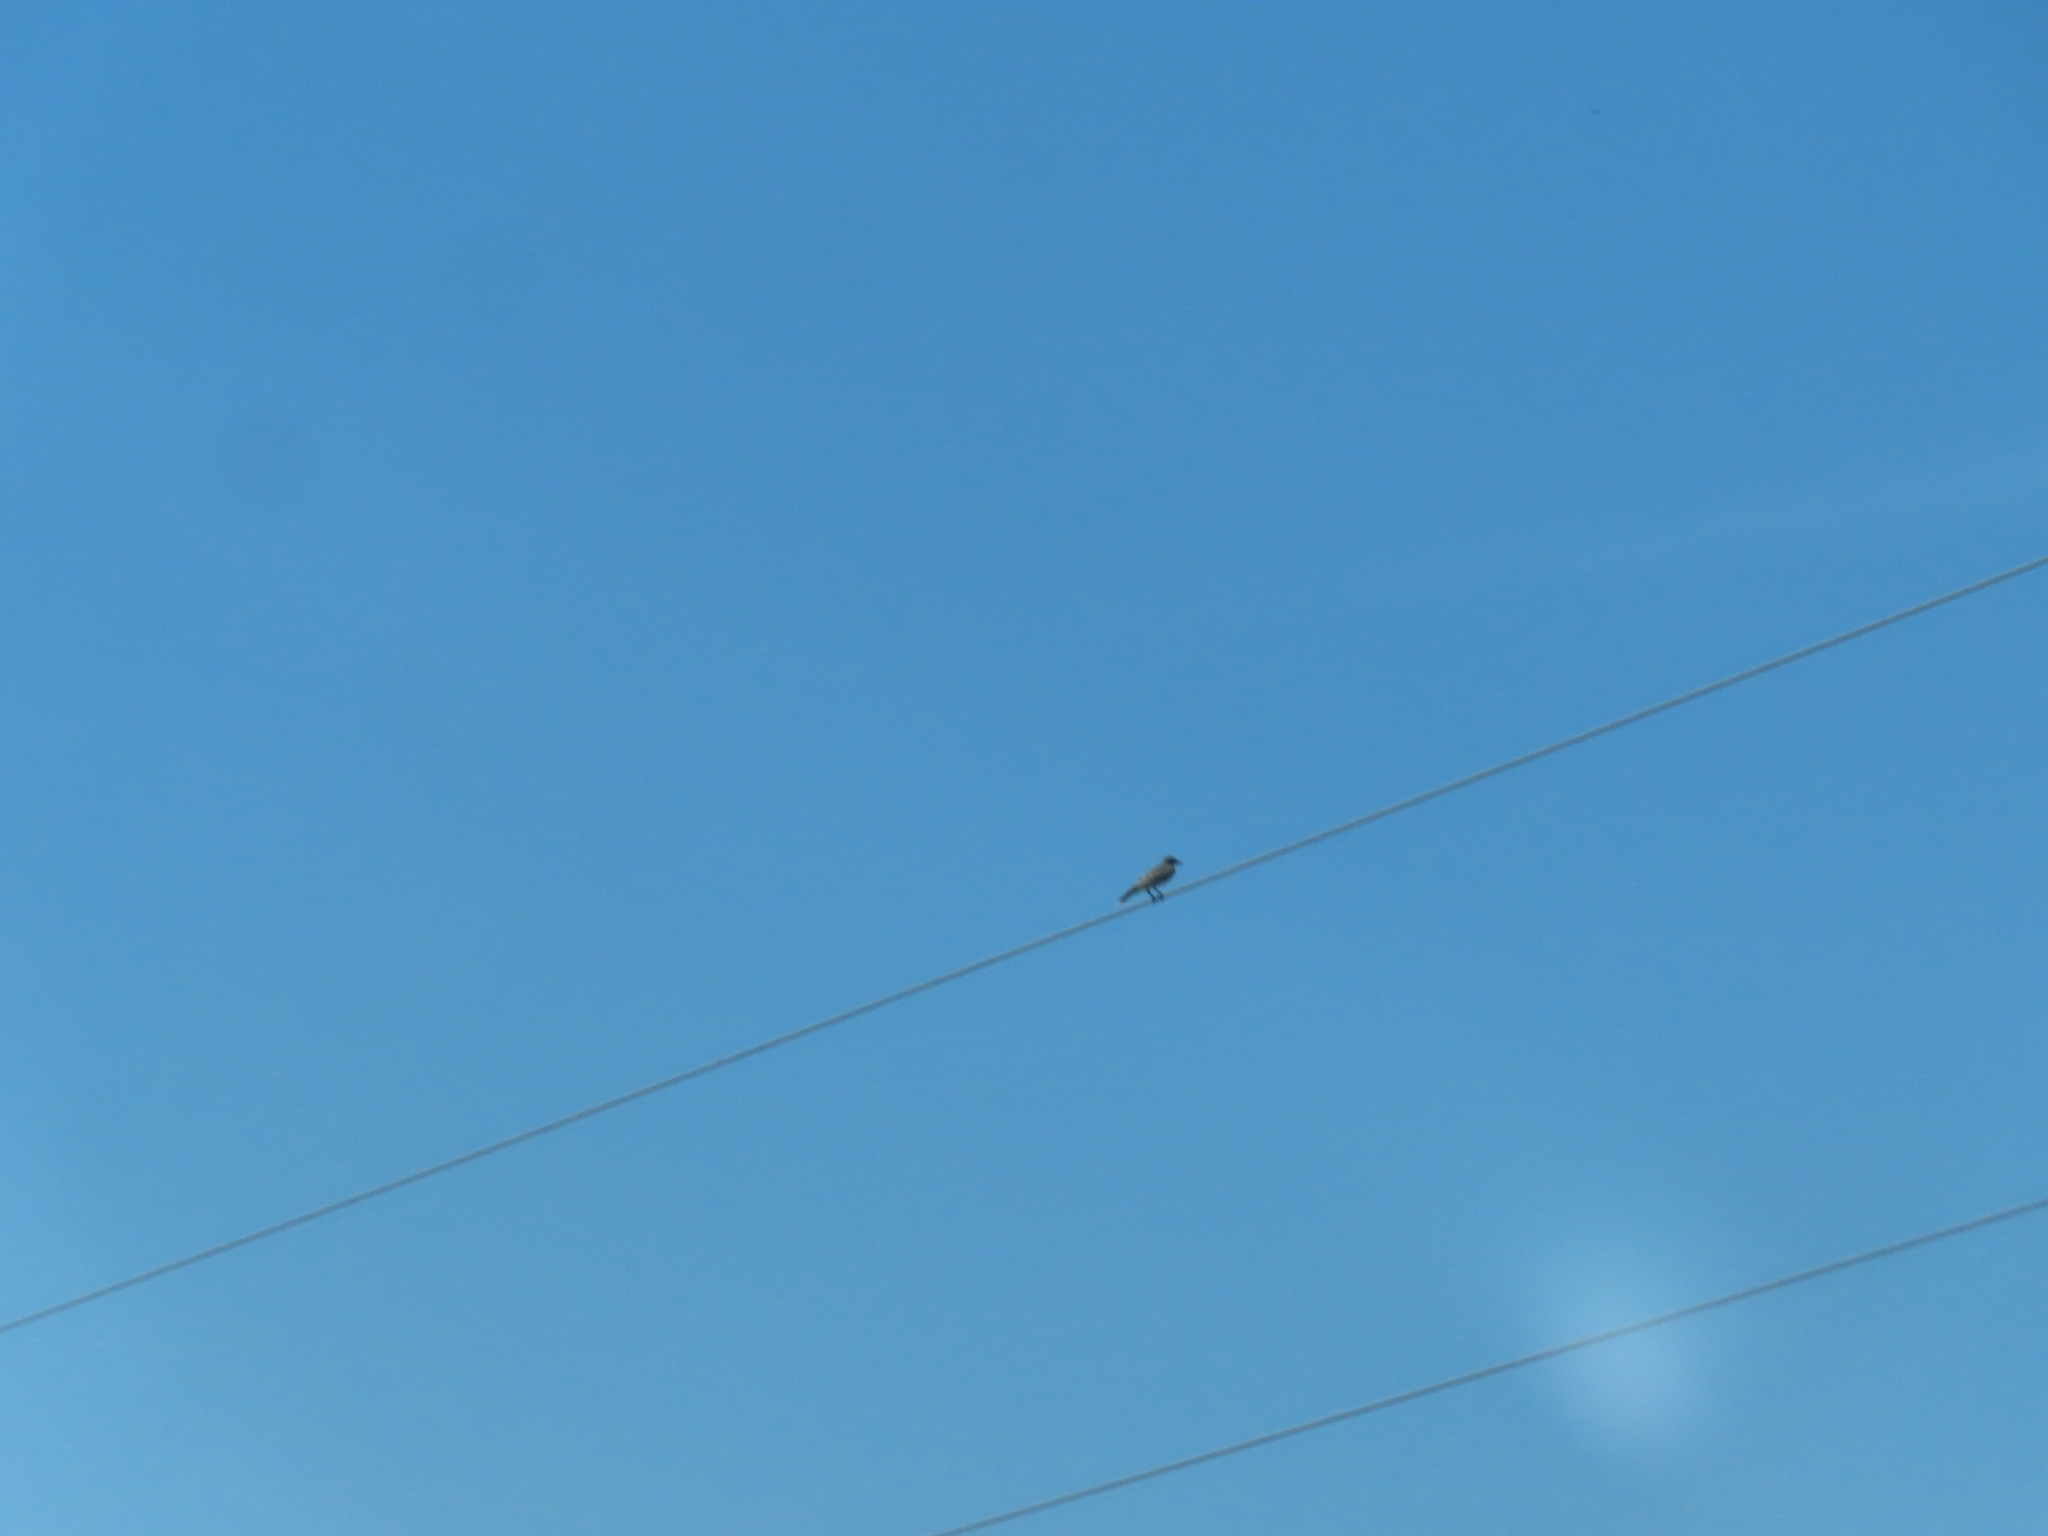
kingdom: Animalia
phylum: Chordata
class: Aves
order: Passeriformes
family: Tyrannidae
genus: Tyrannus
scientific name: Tyrannus tyrannus
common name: Eastern kingbird
